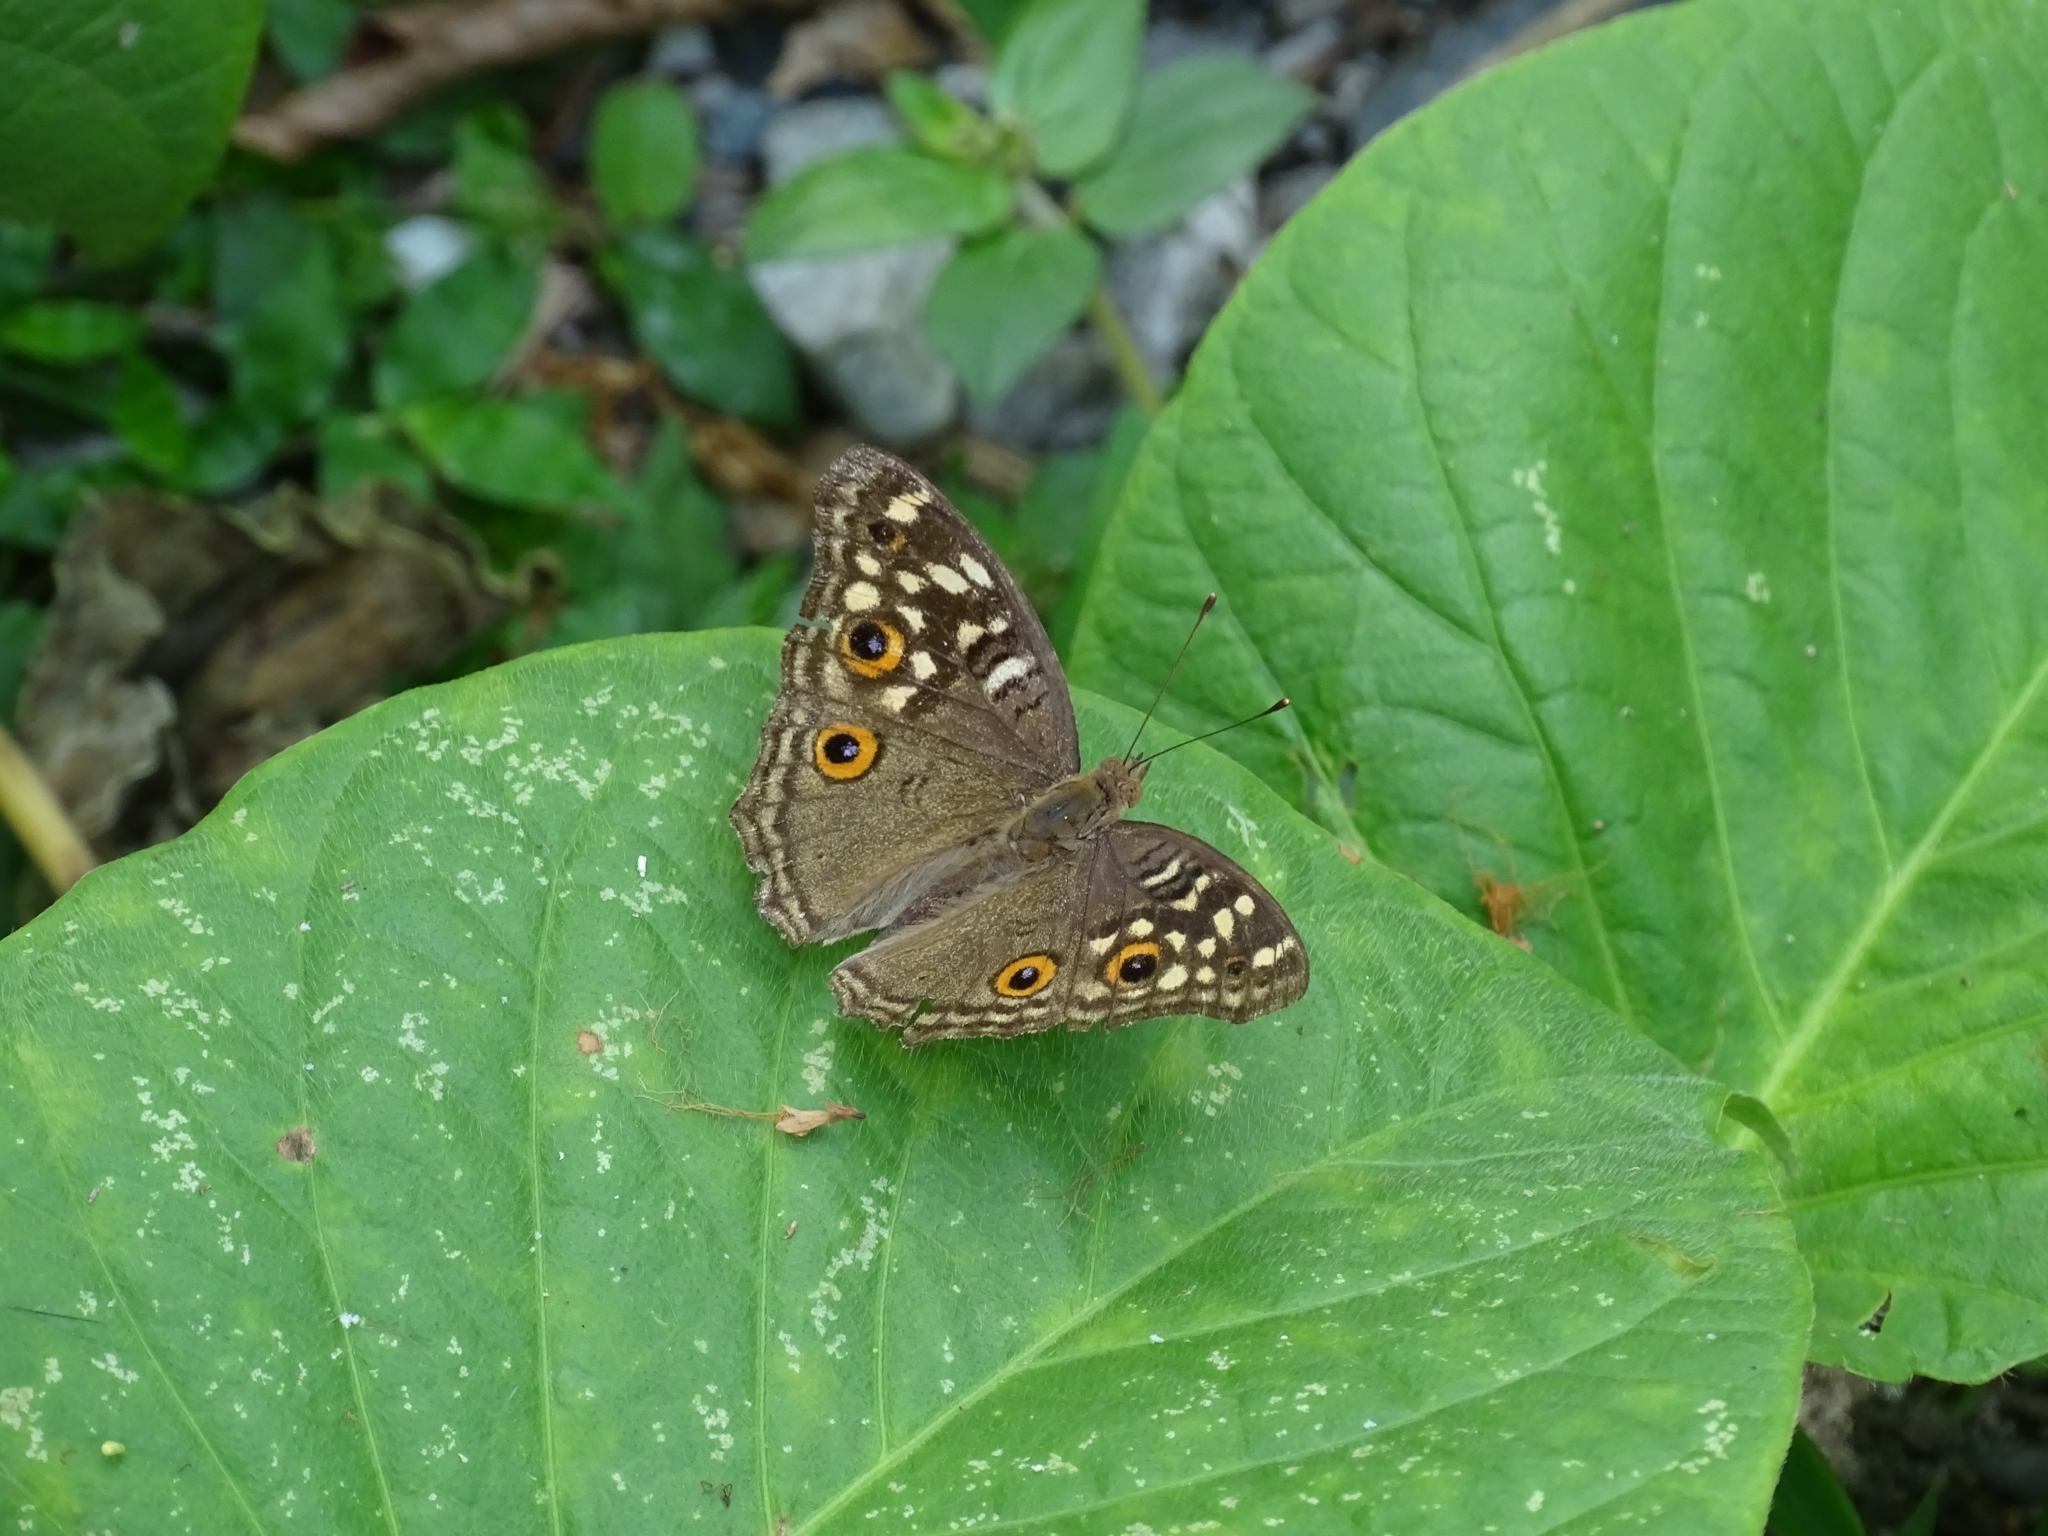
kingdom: Animalia
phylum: Arthropoda
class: Insecta
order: Lepidoptera
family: Nymphalidae
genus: Junonia
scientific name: Junonia lemonias
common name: Lemon pansy
